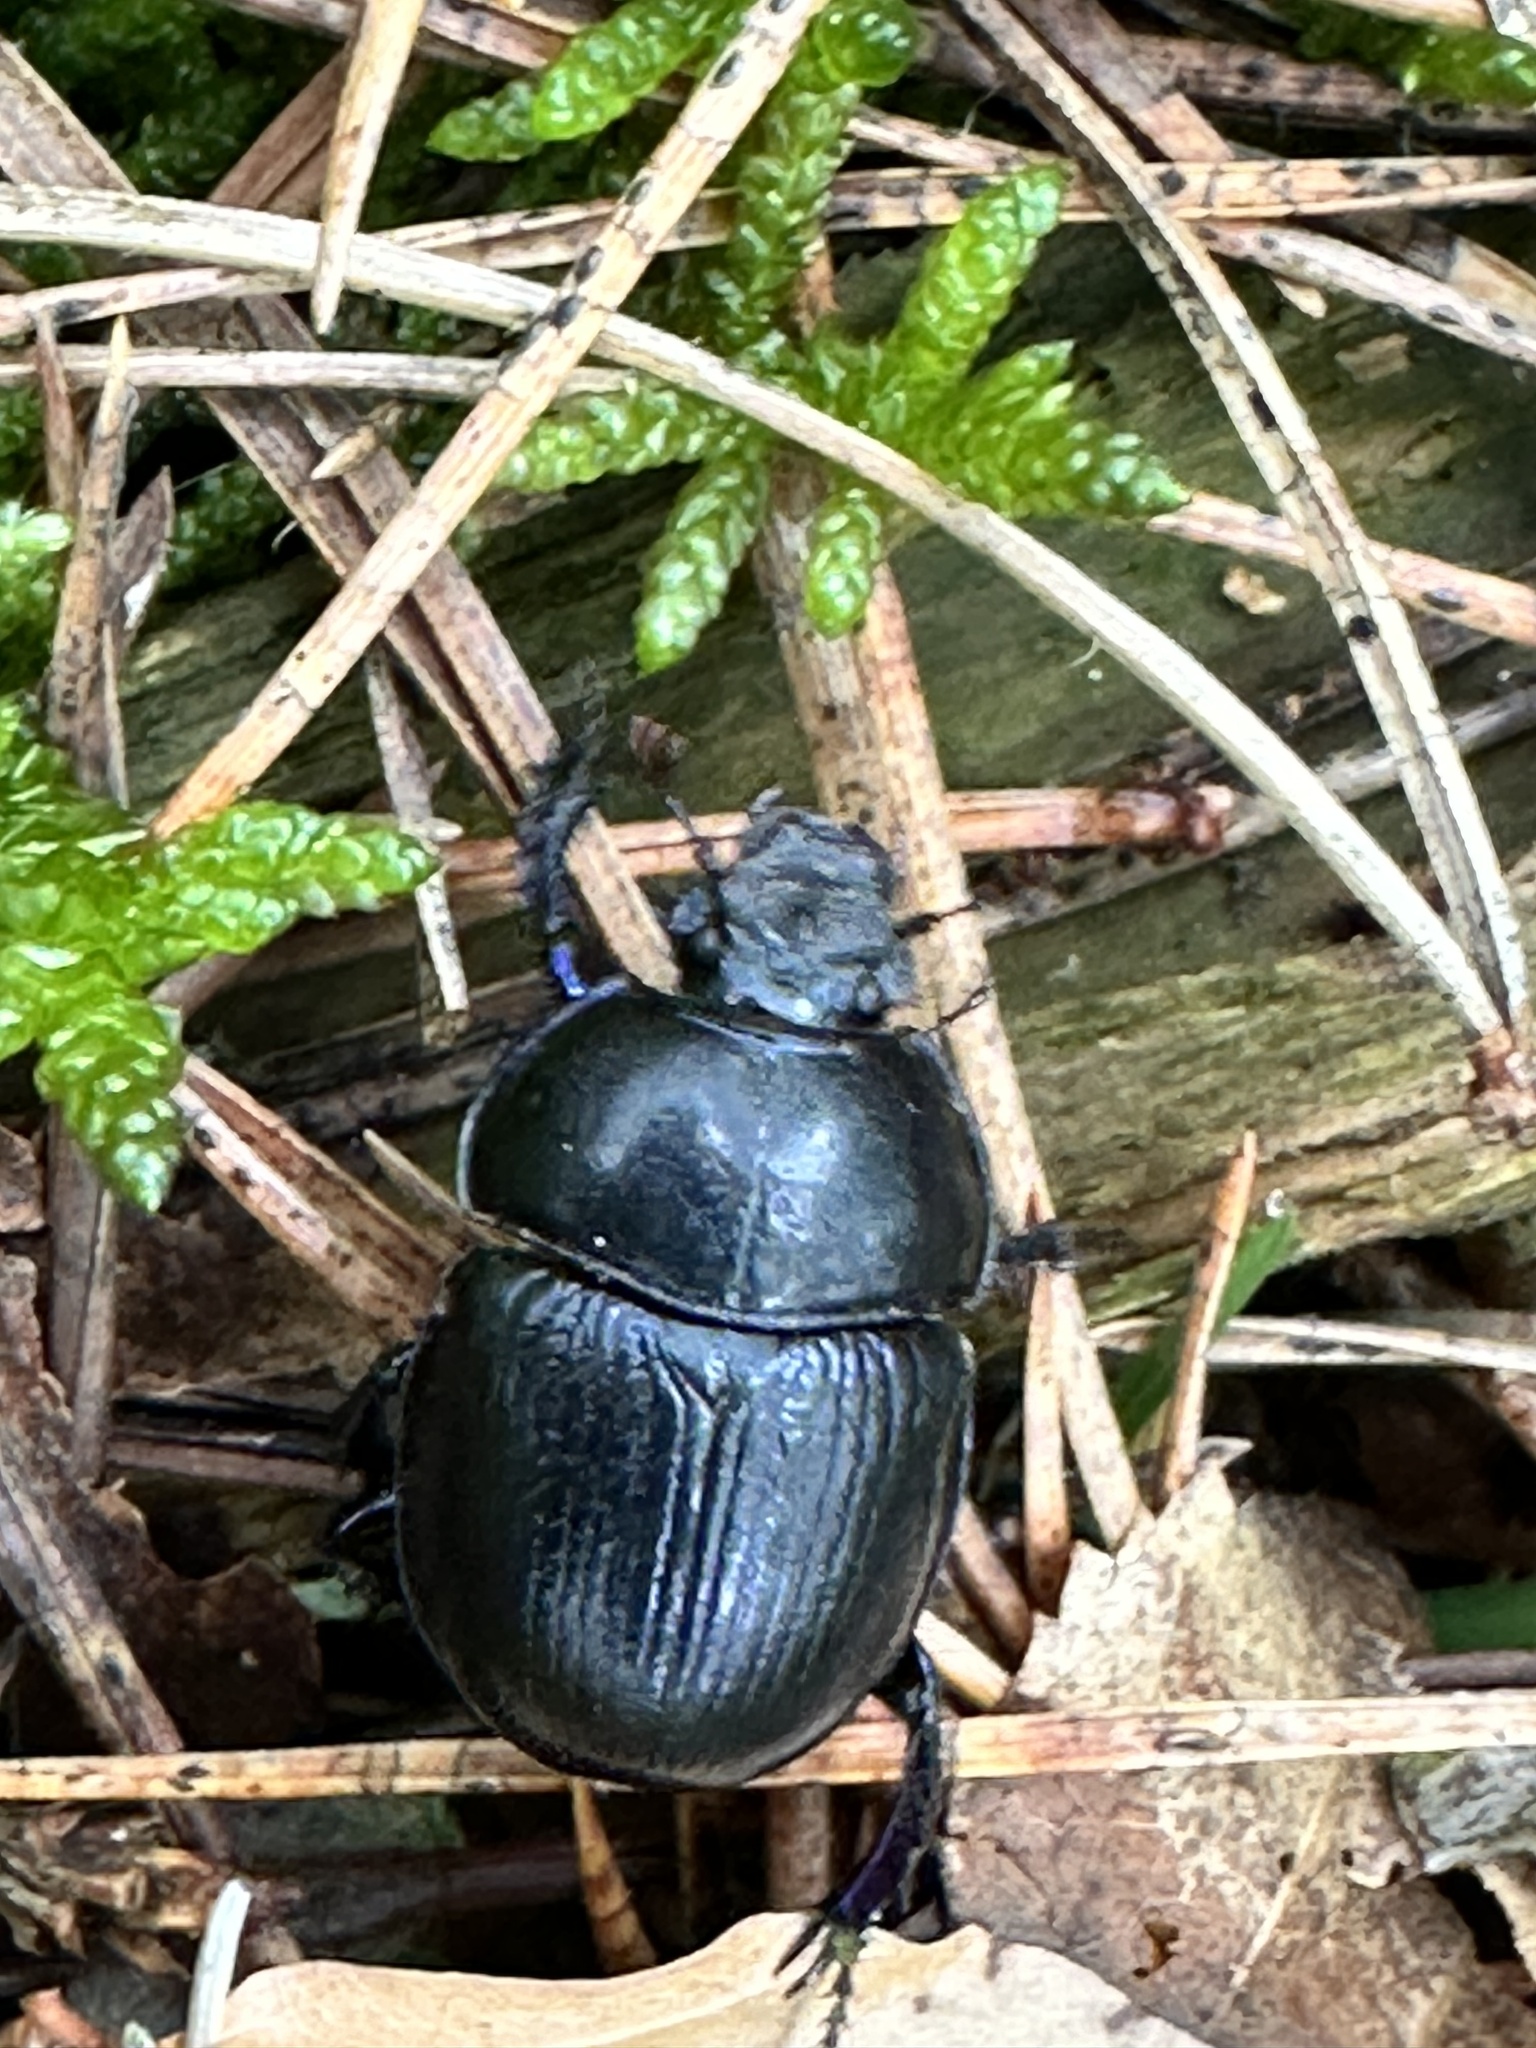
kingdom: Animalia
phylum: Arthropoda
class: Insecta
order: Coleoptera
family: Geotrupidae
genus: Anoplotrupes
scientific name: Anoplotrupes stercorosus
